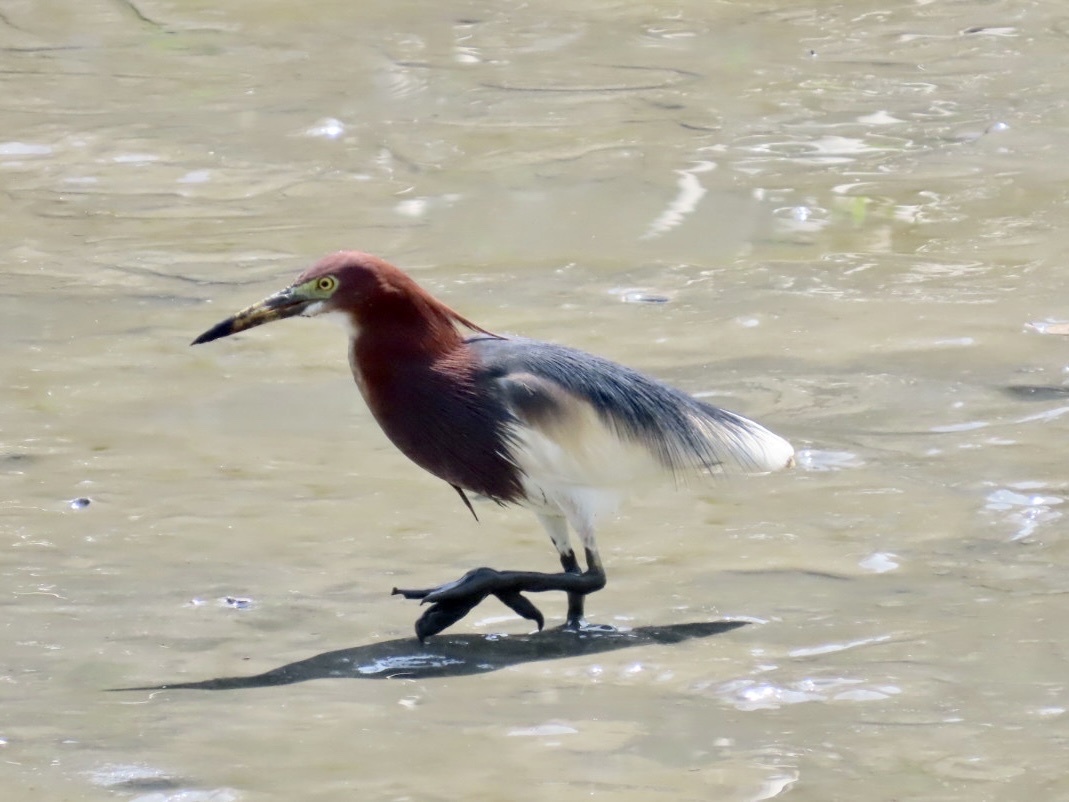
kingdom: Animalia
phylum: Chordata
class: Aves
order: Pelecaniformes
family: Ardeidae
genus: Ardeola
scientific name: Ardeola bacchus
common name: Chinese pond heron
